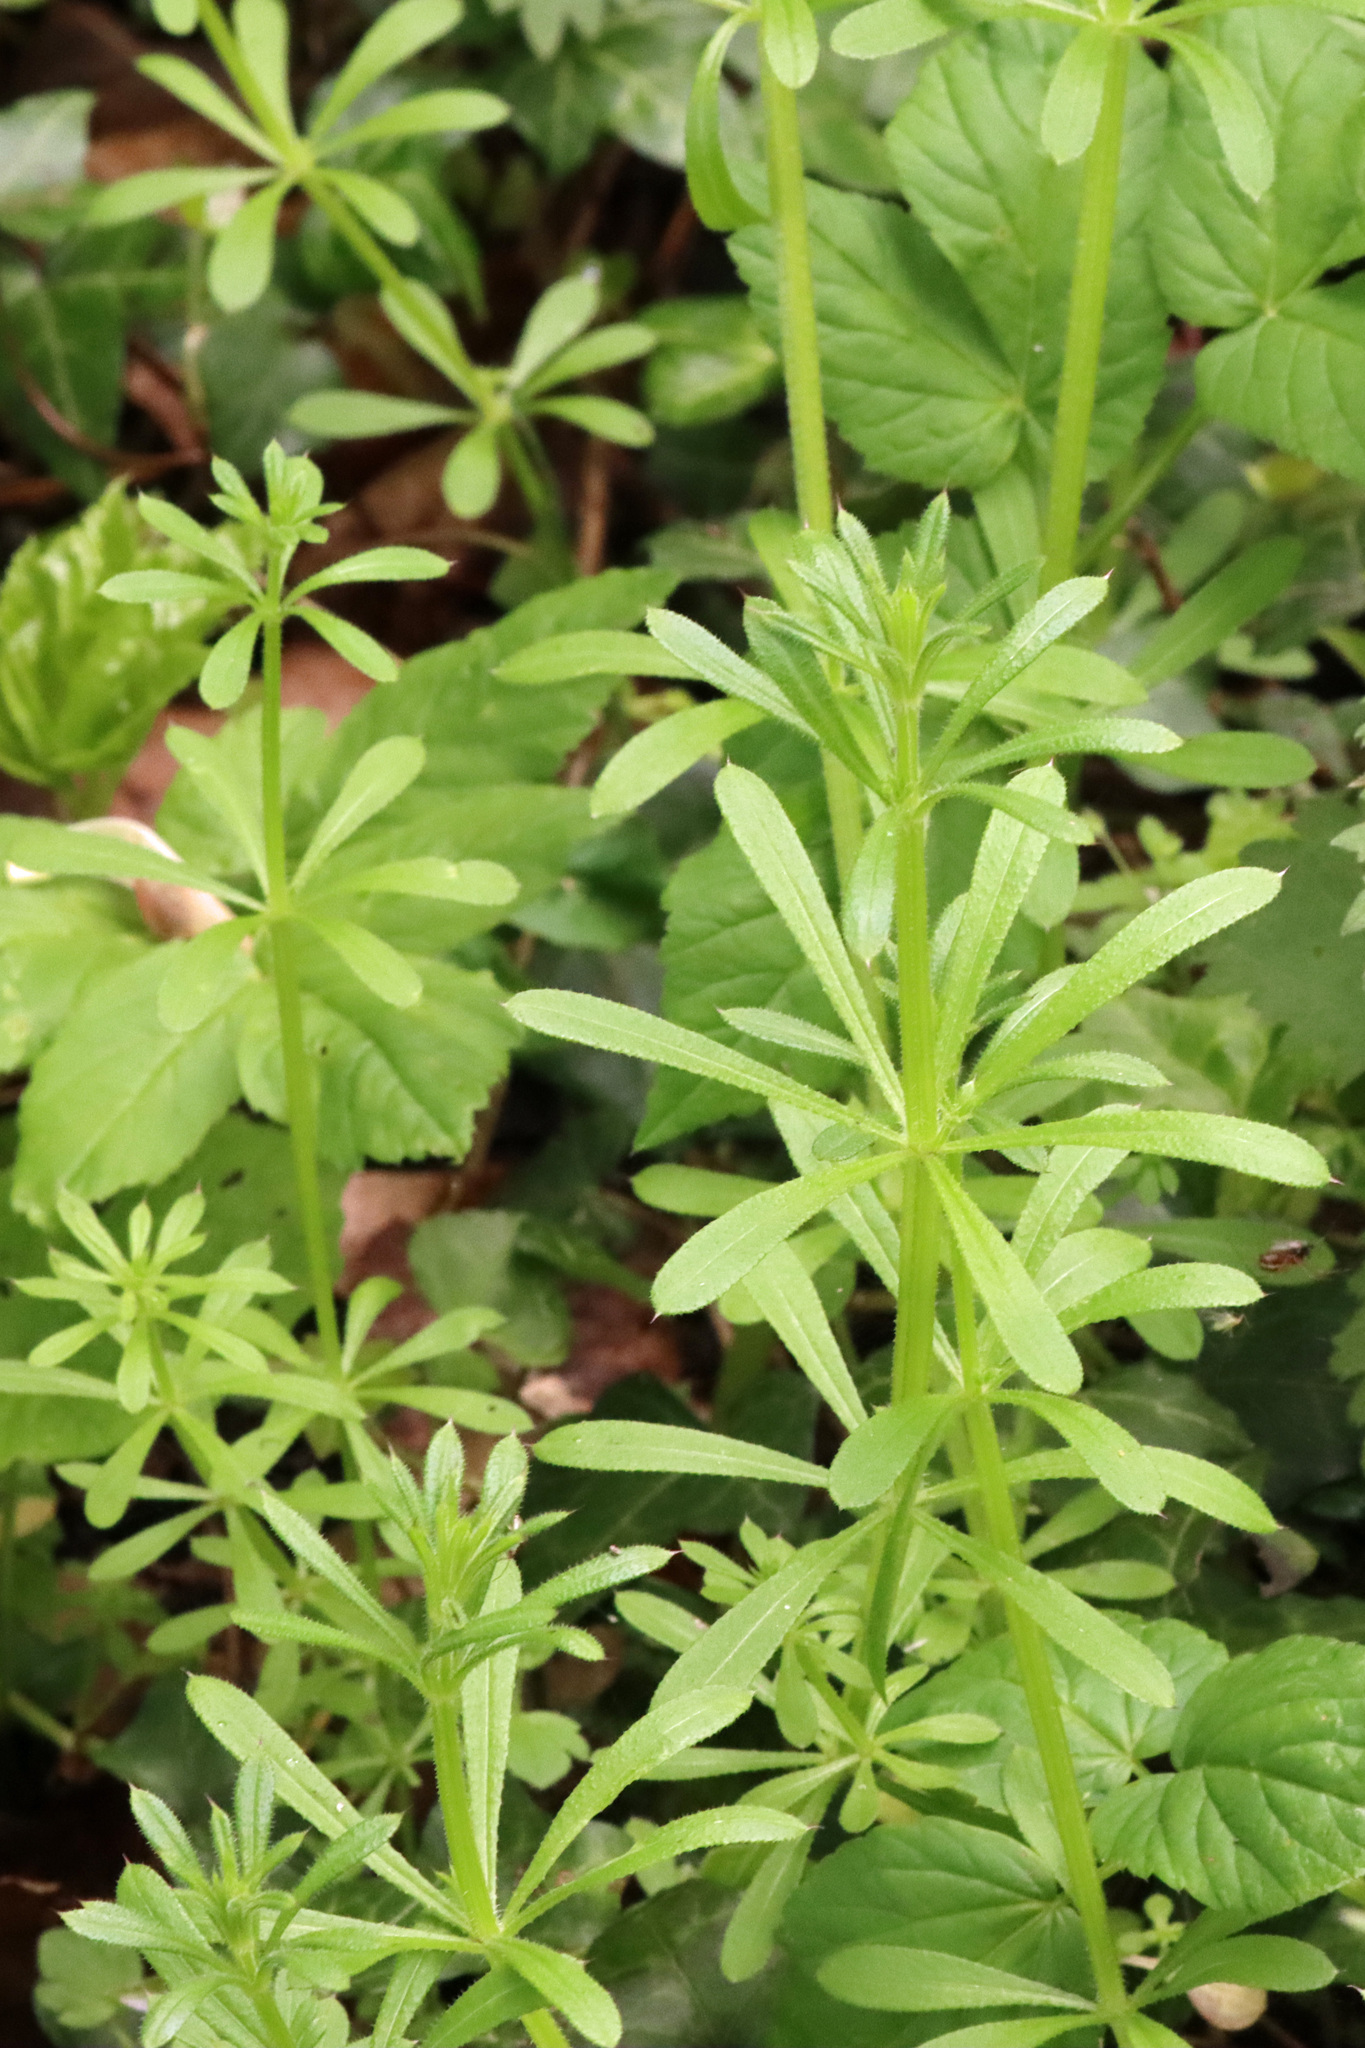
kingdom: Plantae
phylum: Tracheophyta
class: Magnoliopsida
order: Gentianales
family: Rubiaceae
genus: Galium
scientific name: Galium aparine
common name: Cleavers
